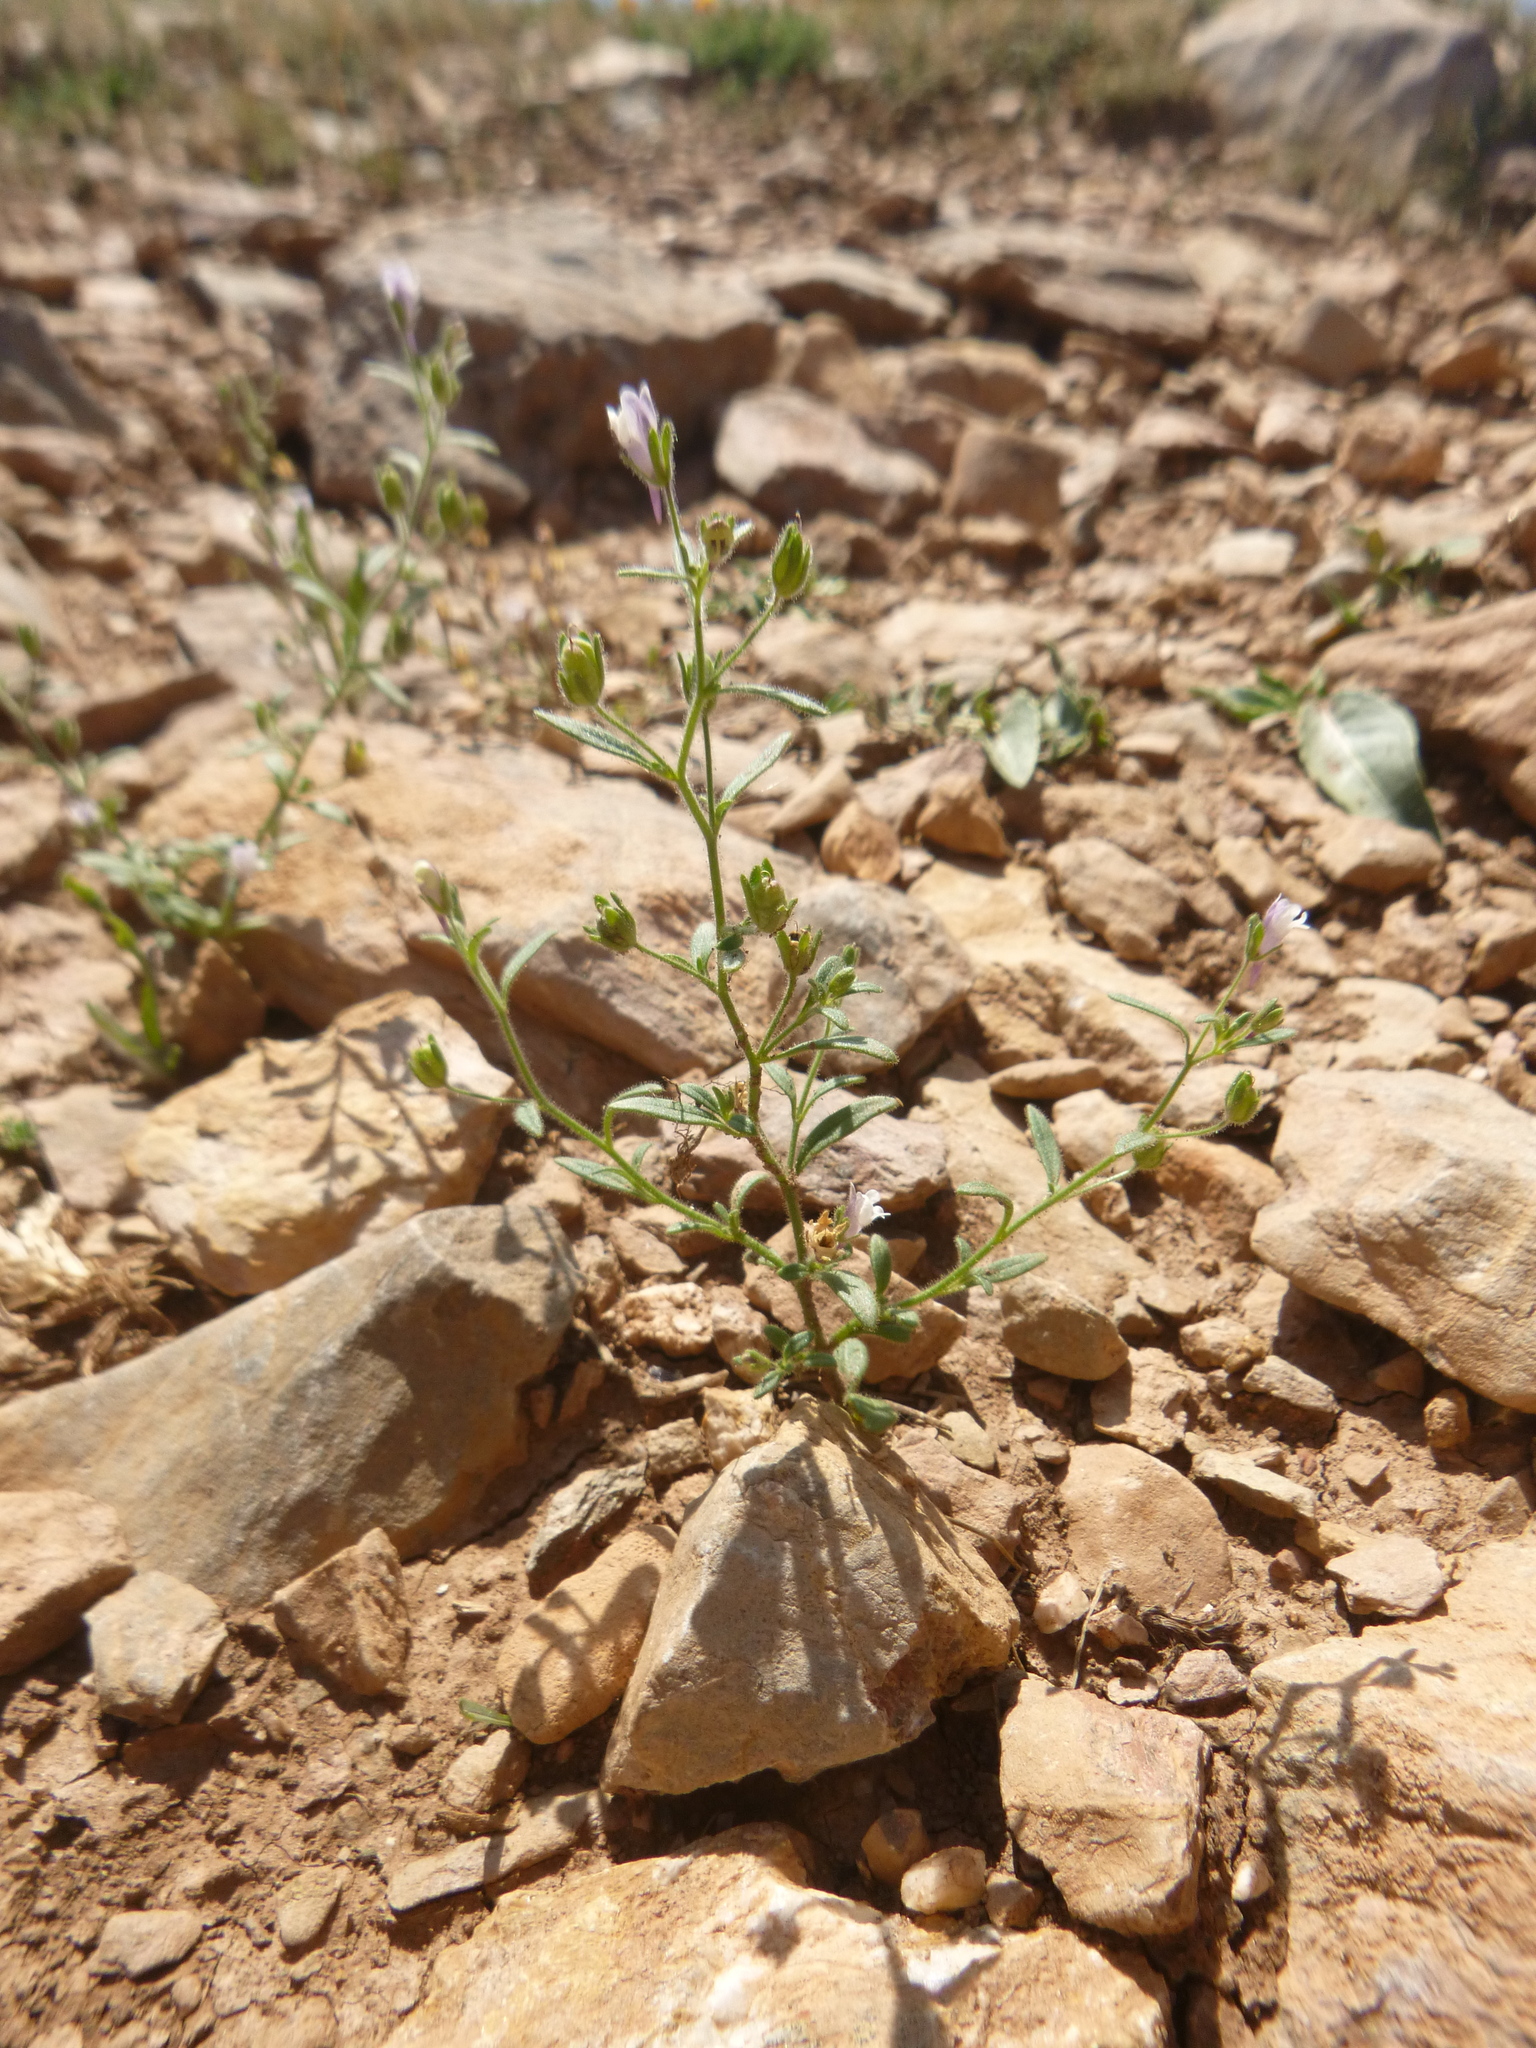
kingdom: Plantae
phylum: Tracheophyta
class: Magnoliopsida
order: Lamiales
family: Plantaginaceae
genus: Chaenorhinum
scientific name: Chaenorhinum minus
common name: Dwarf snapdragon
